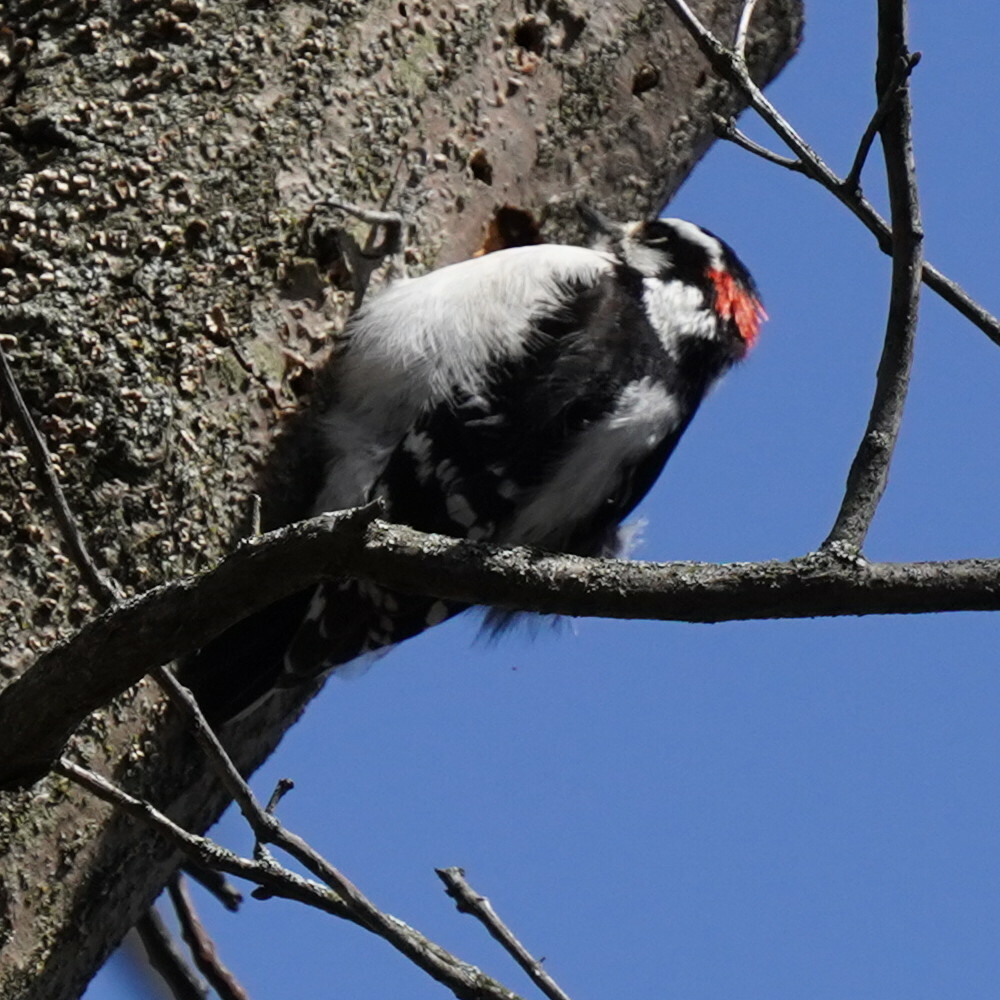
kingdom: Animalia
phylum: Chordata
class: Aves
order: Piciformes
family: Picidae
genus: Dryobates
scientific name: Dryobates pubescens
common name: Downy woodpecker
